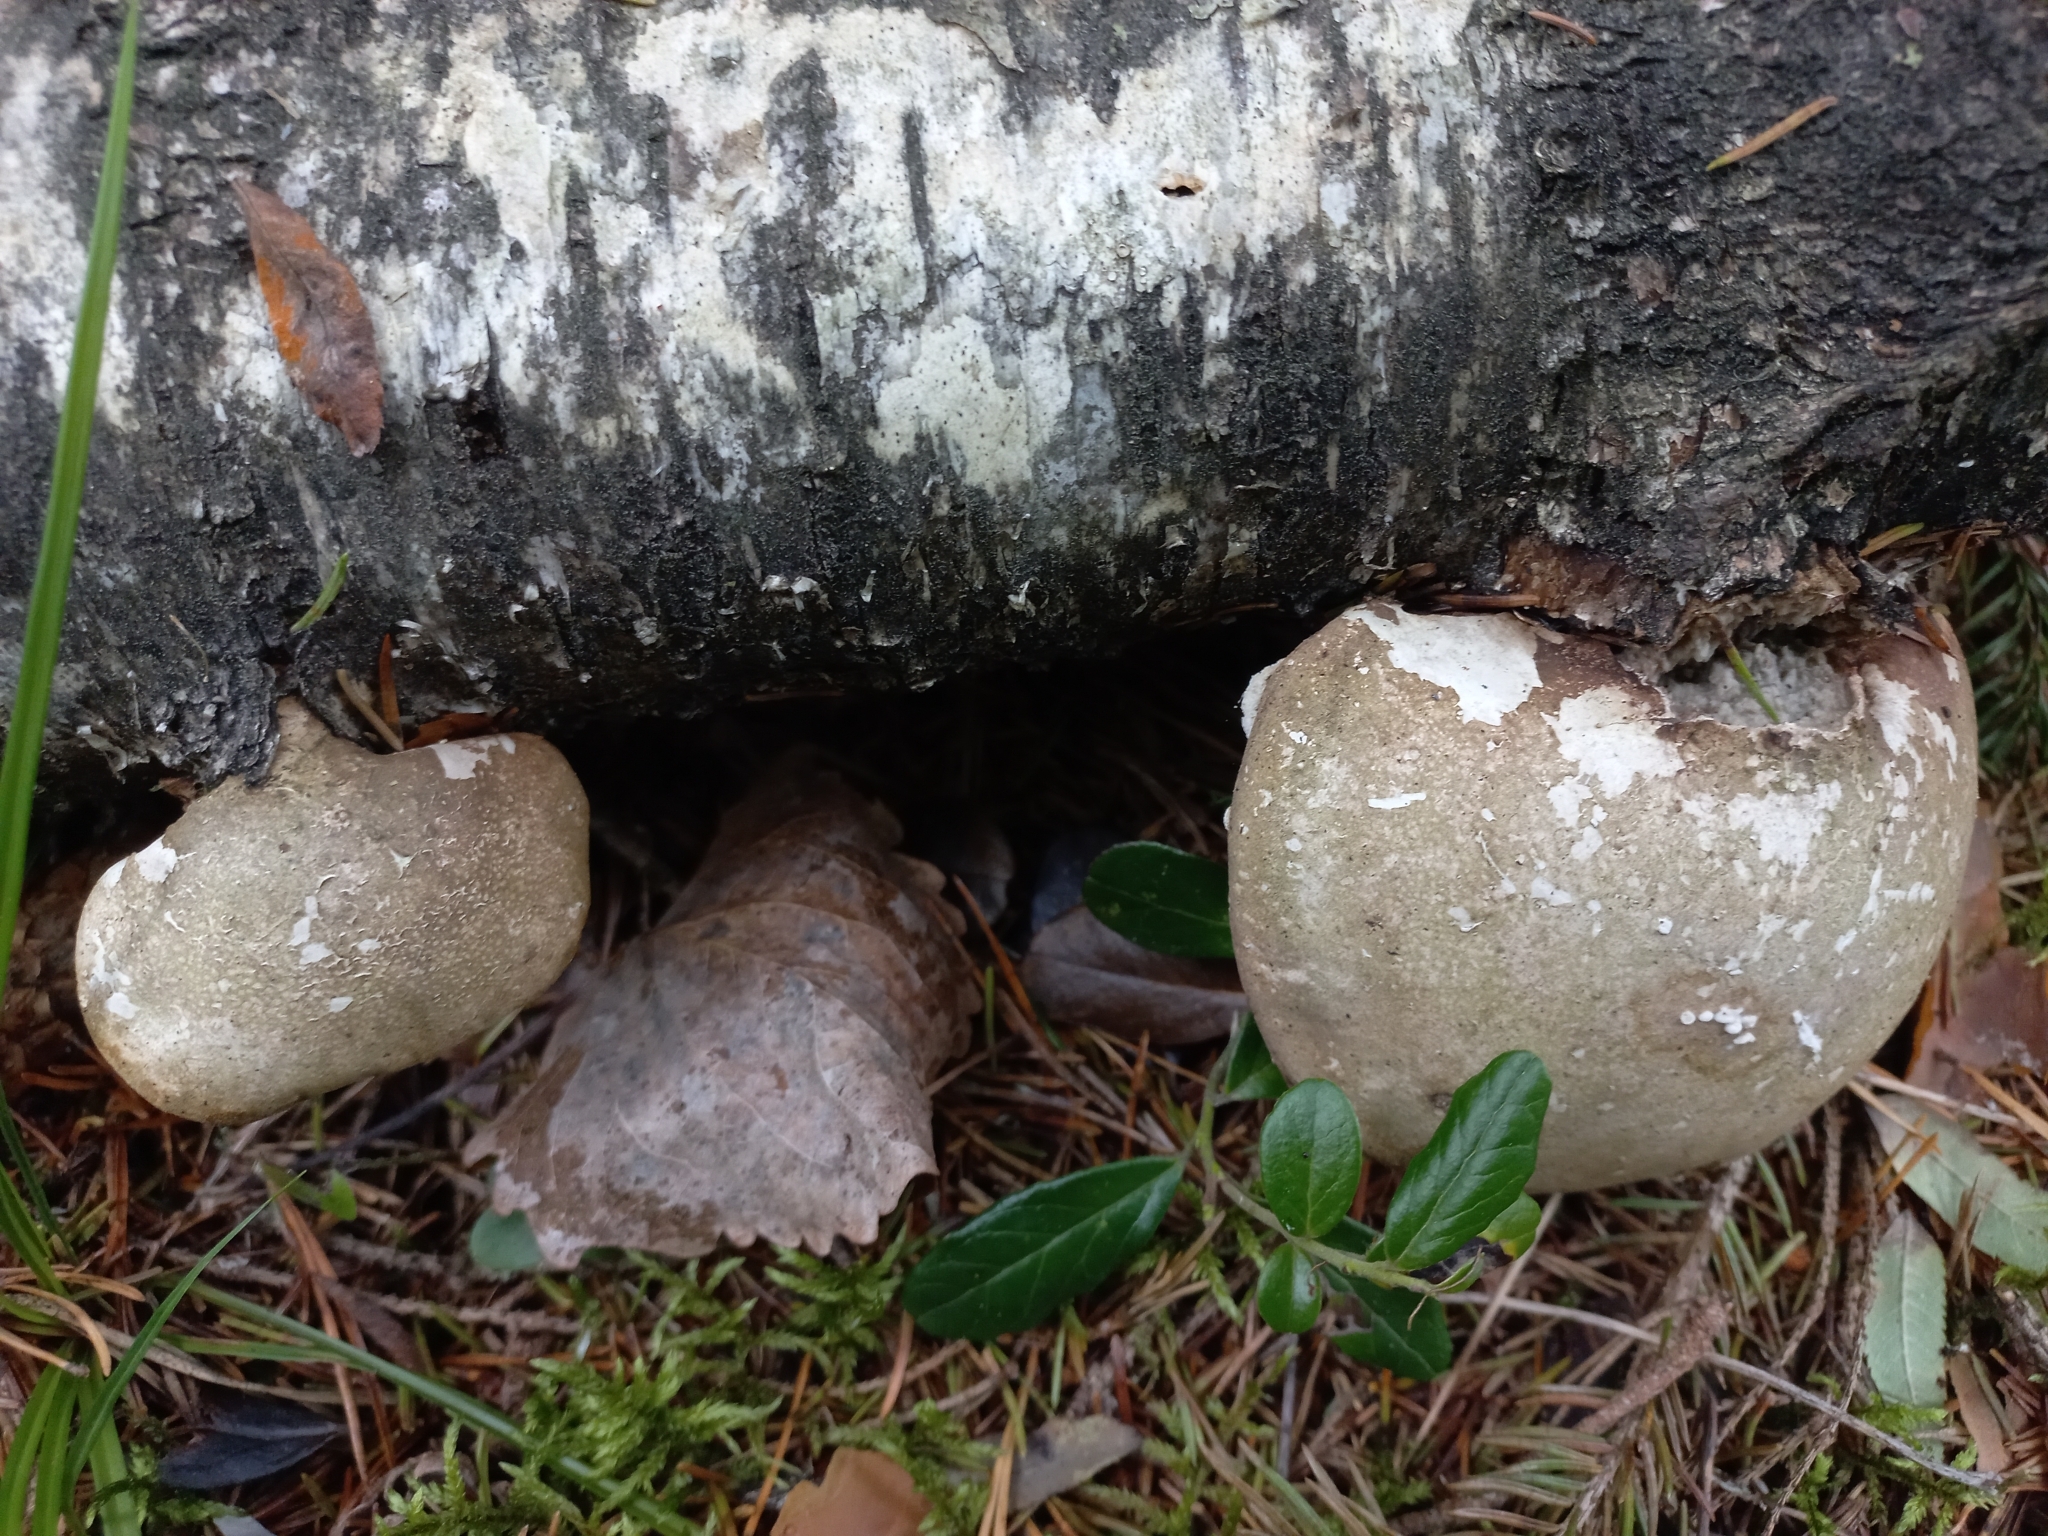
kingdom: Fungi
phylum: Basidiomycota
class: Agaricomycetes
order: Polyporales
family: Fomitopsidaceae
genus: Fomitopsis
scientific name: Fomitopsis betulina
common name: Birch polypore
